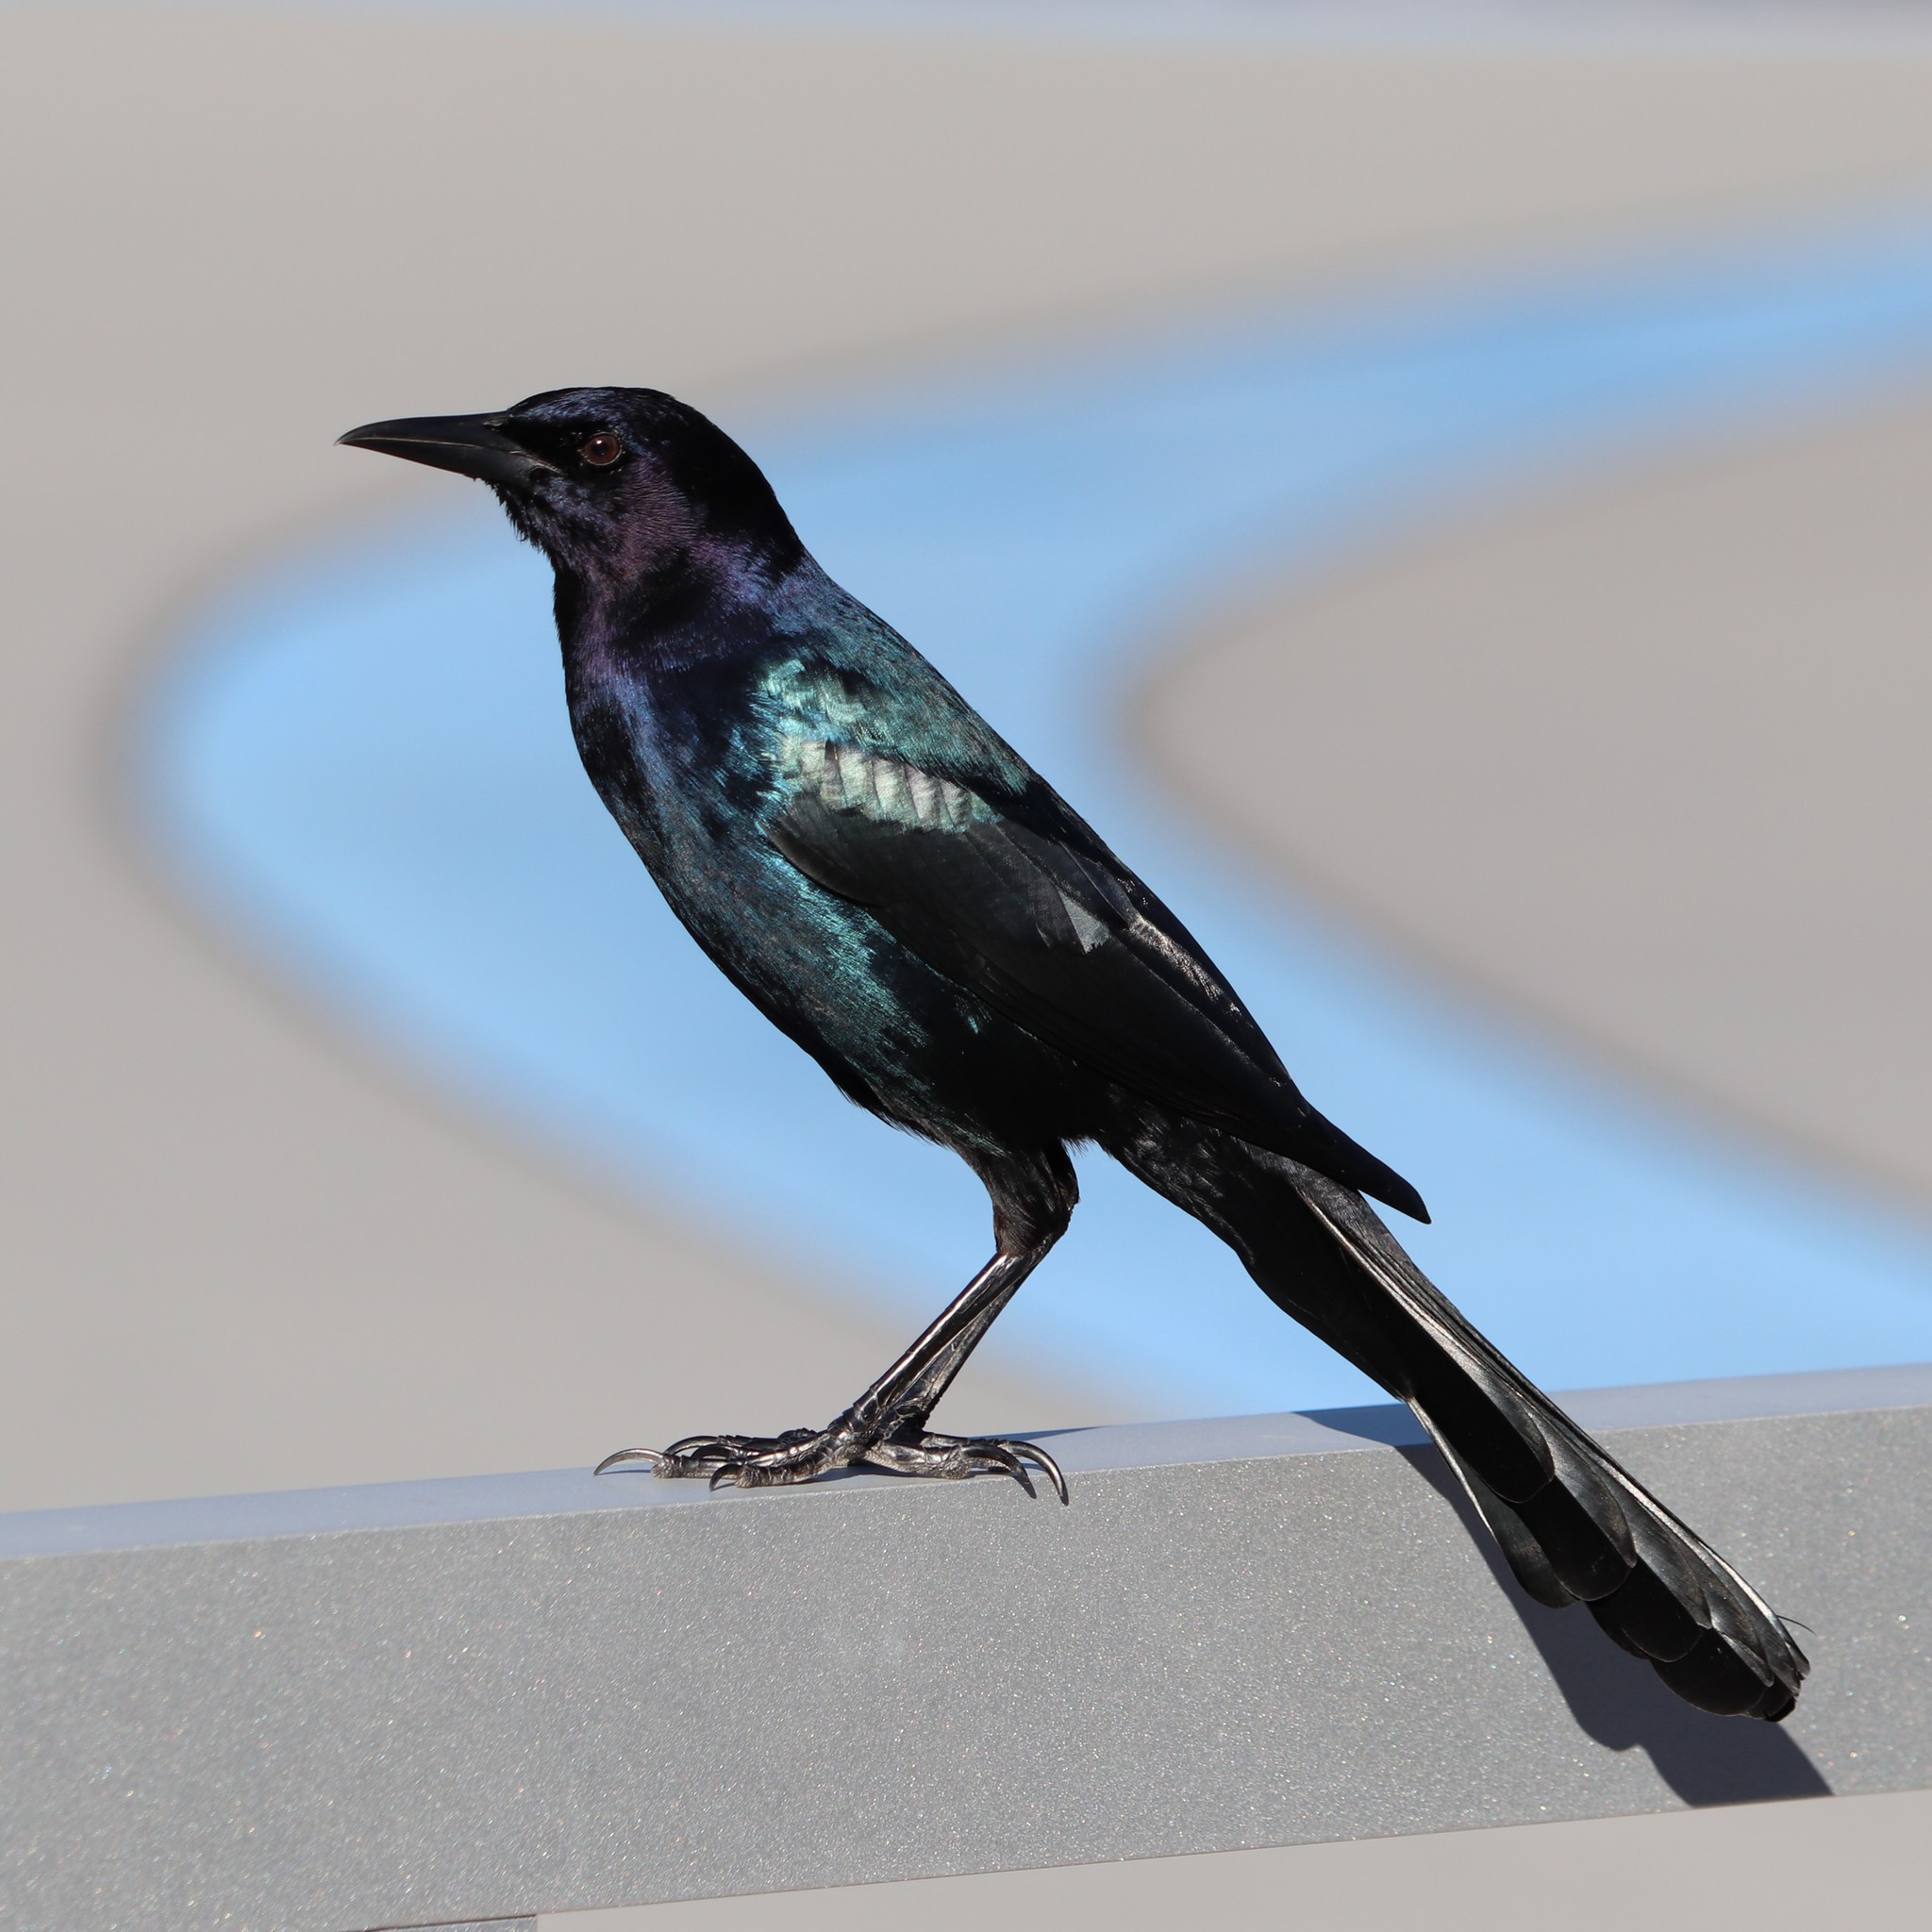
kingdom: Animalia
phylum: Chordata
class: Aves
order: Passeriformes
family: Icteridae
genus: Quiscalus
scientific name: Quiscalus major
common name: Boat-tailed grackle
